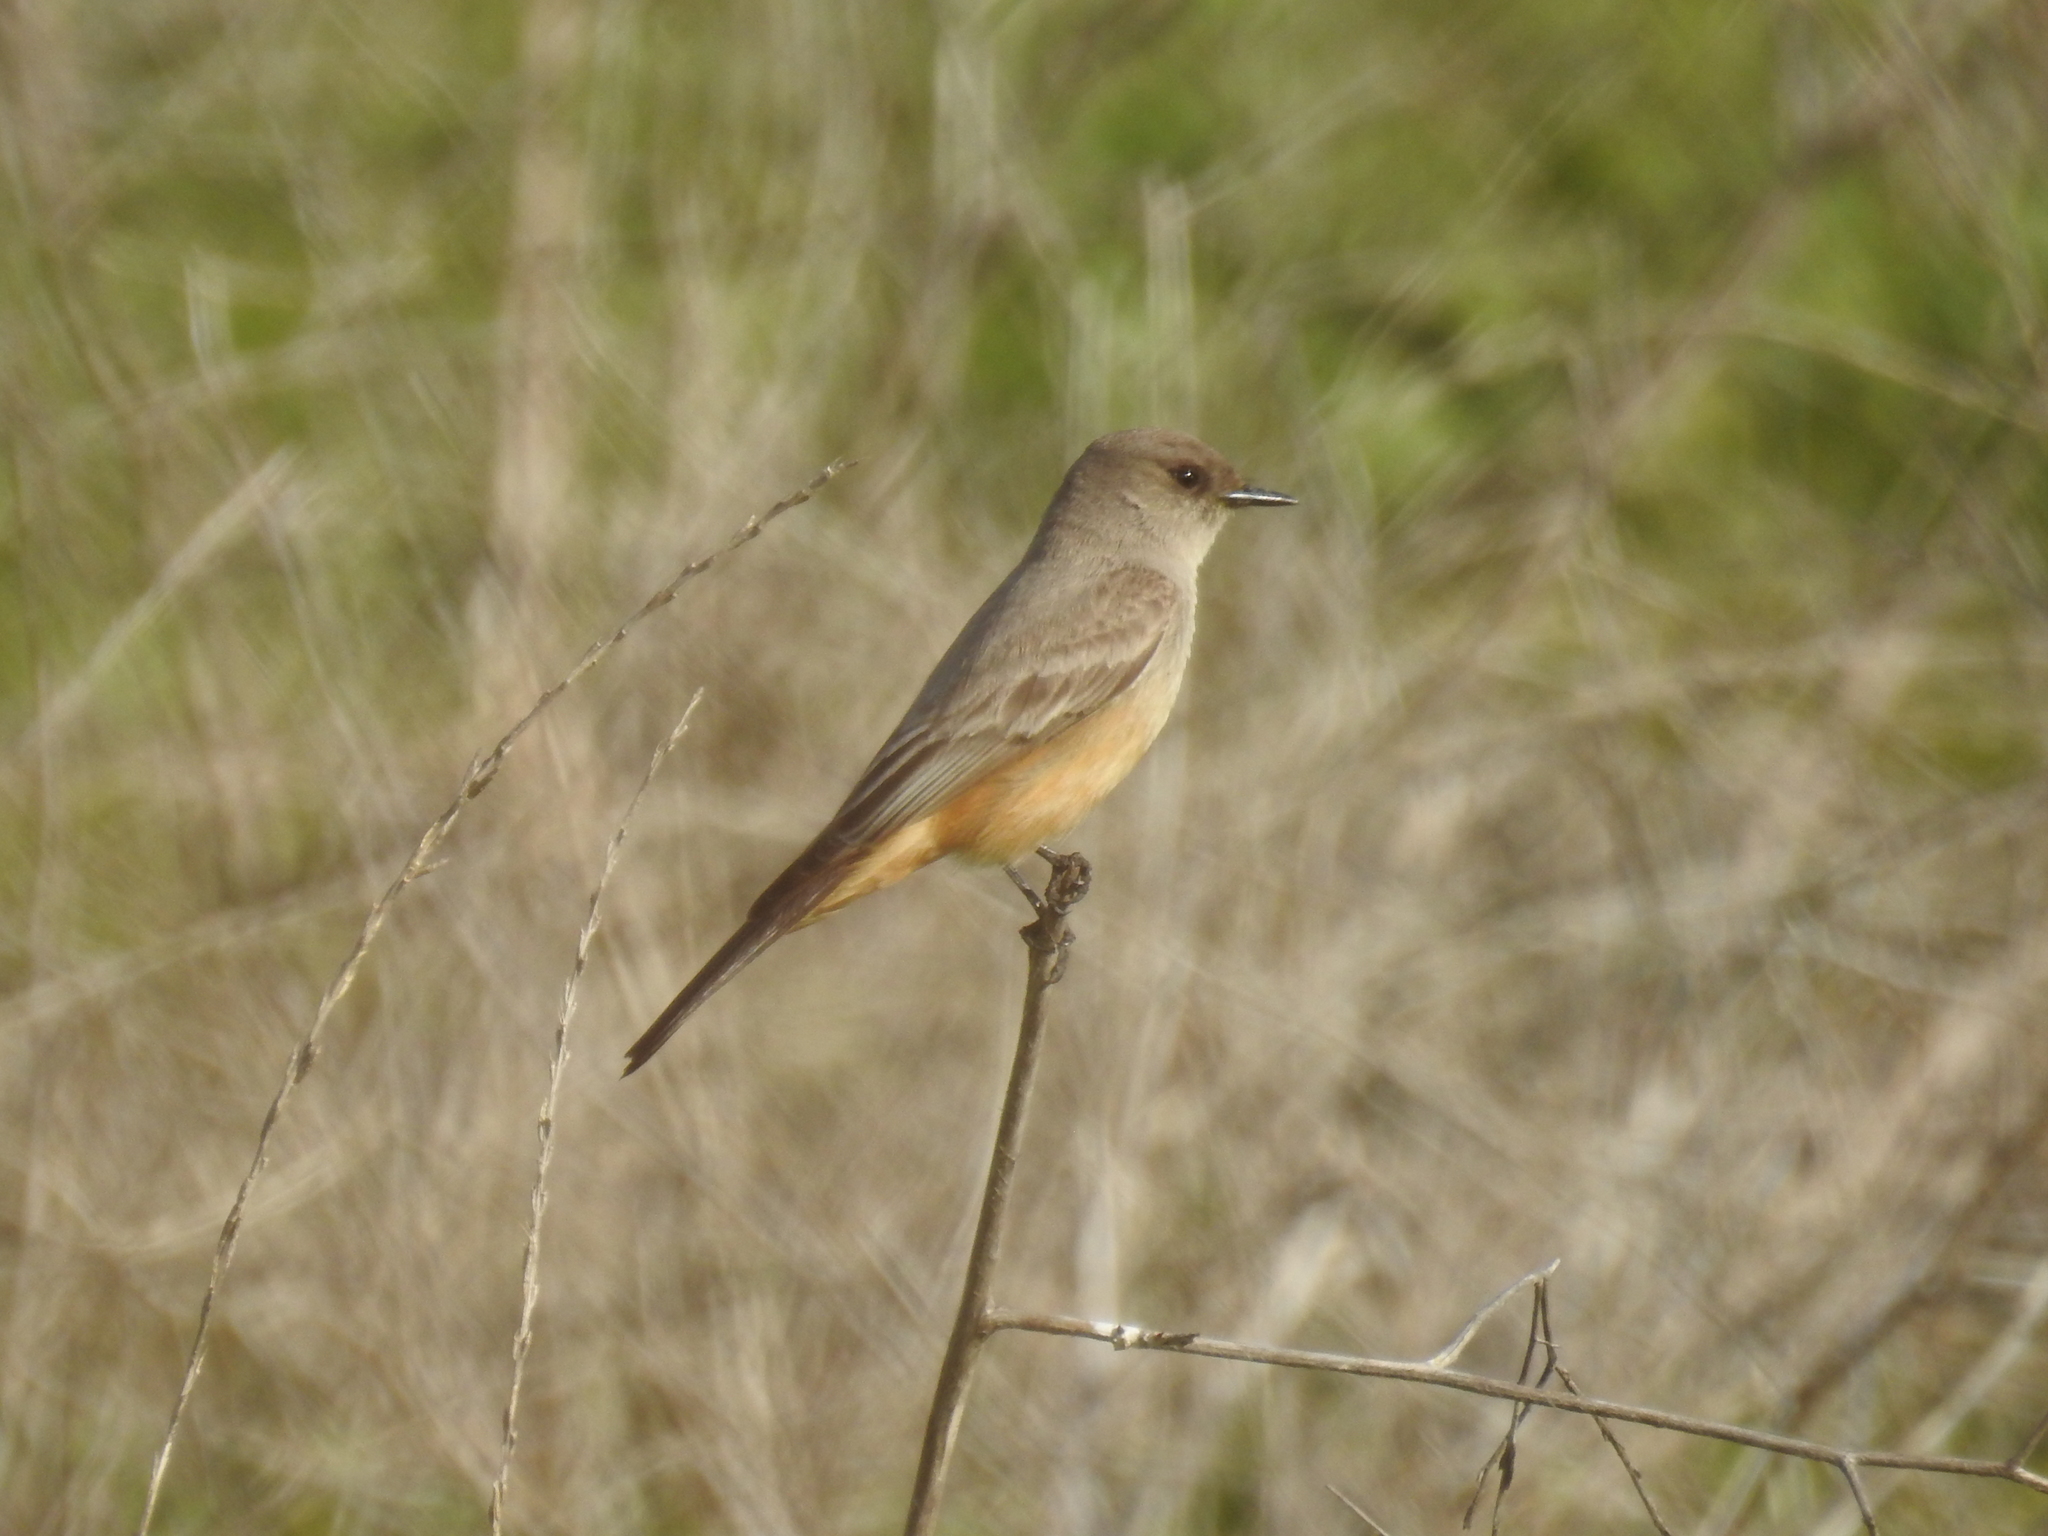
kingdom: Animalia
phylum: Chordata
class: Aves
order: Passeriformes
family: Tyrannidae
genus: Sayornis
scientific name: Sayornis saya
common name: Say's phoebe
